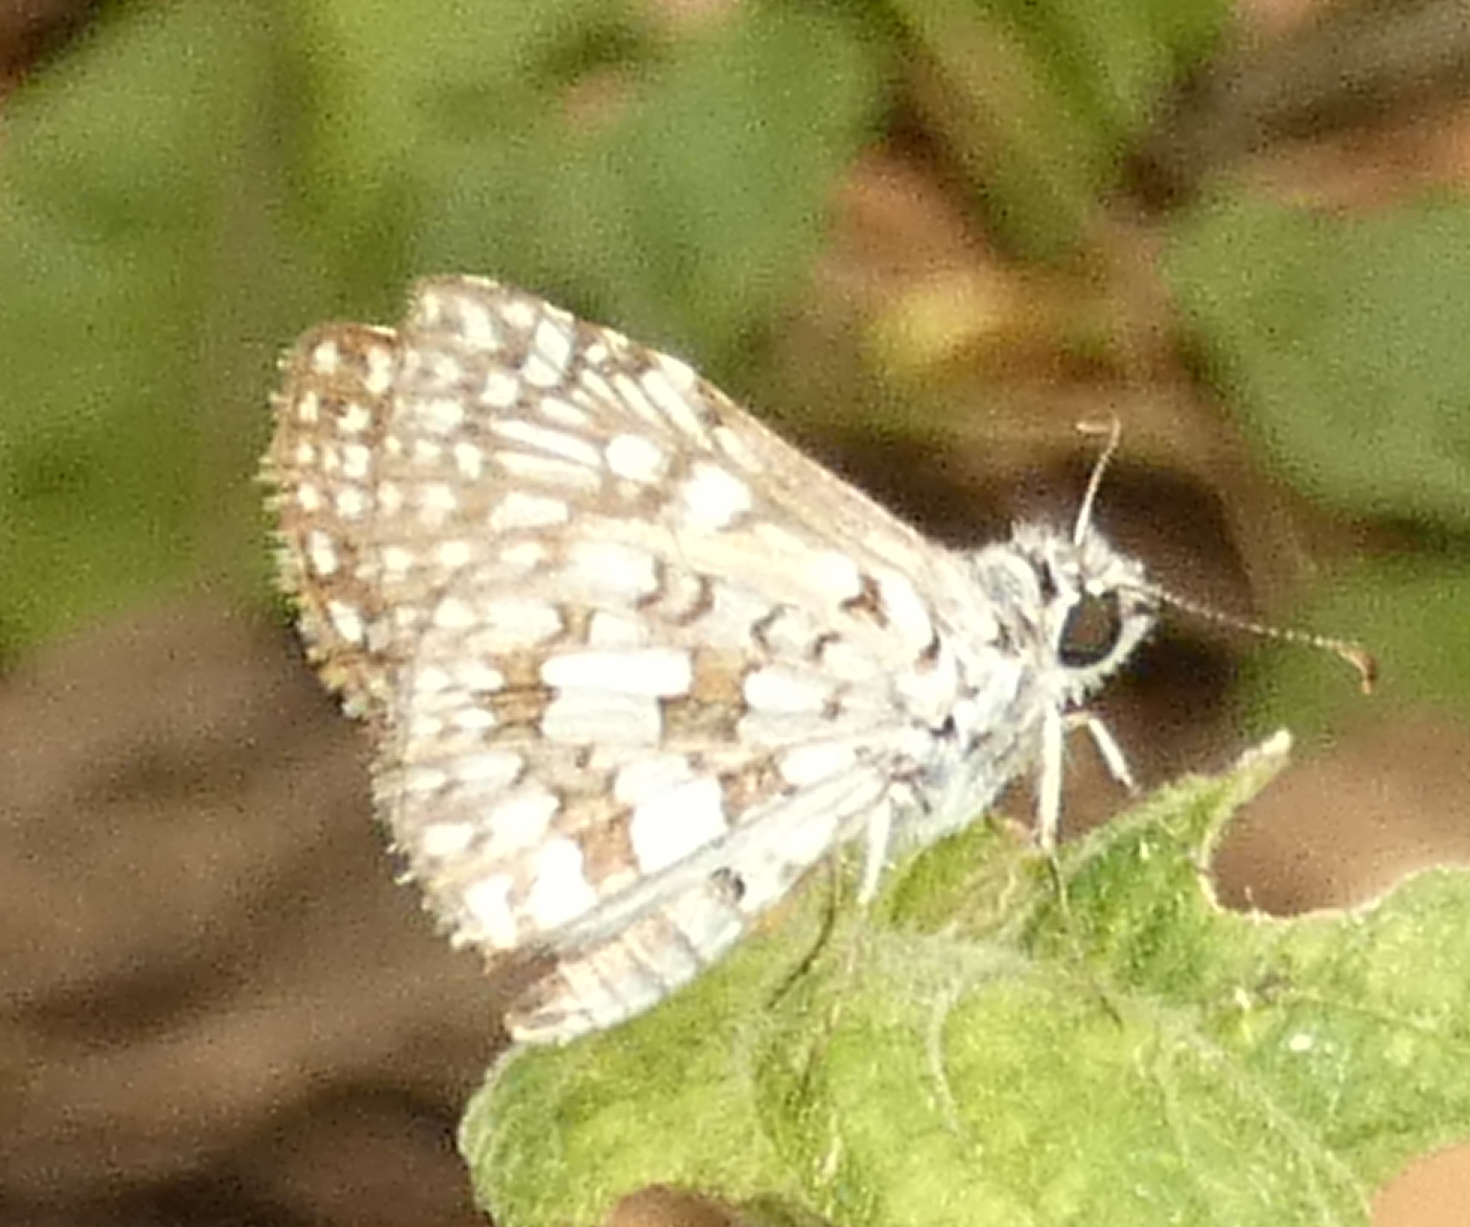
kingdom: Animalia
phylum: Arthropoda
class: Insecta
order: Lepidoptera
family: Hesperiidae
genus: Pyrgus
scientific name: Pyrgus oileus
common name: Tropical checkered-skipper
